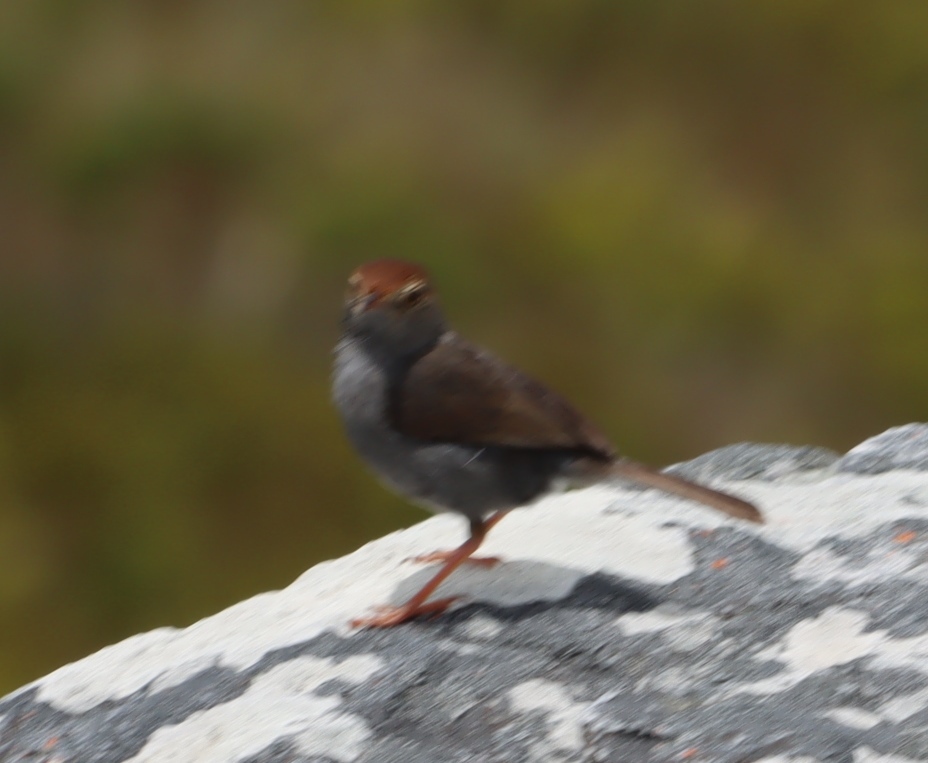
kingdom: Animalia
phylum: Chordata
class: Aves
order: Passeriformes
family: Cisticolidae
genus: Cisticola
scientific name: Cisticola fulvicapilla
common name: Neddicky
